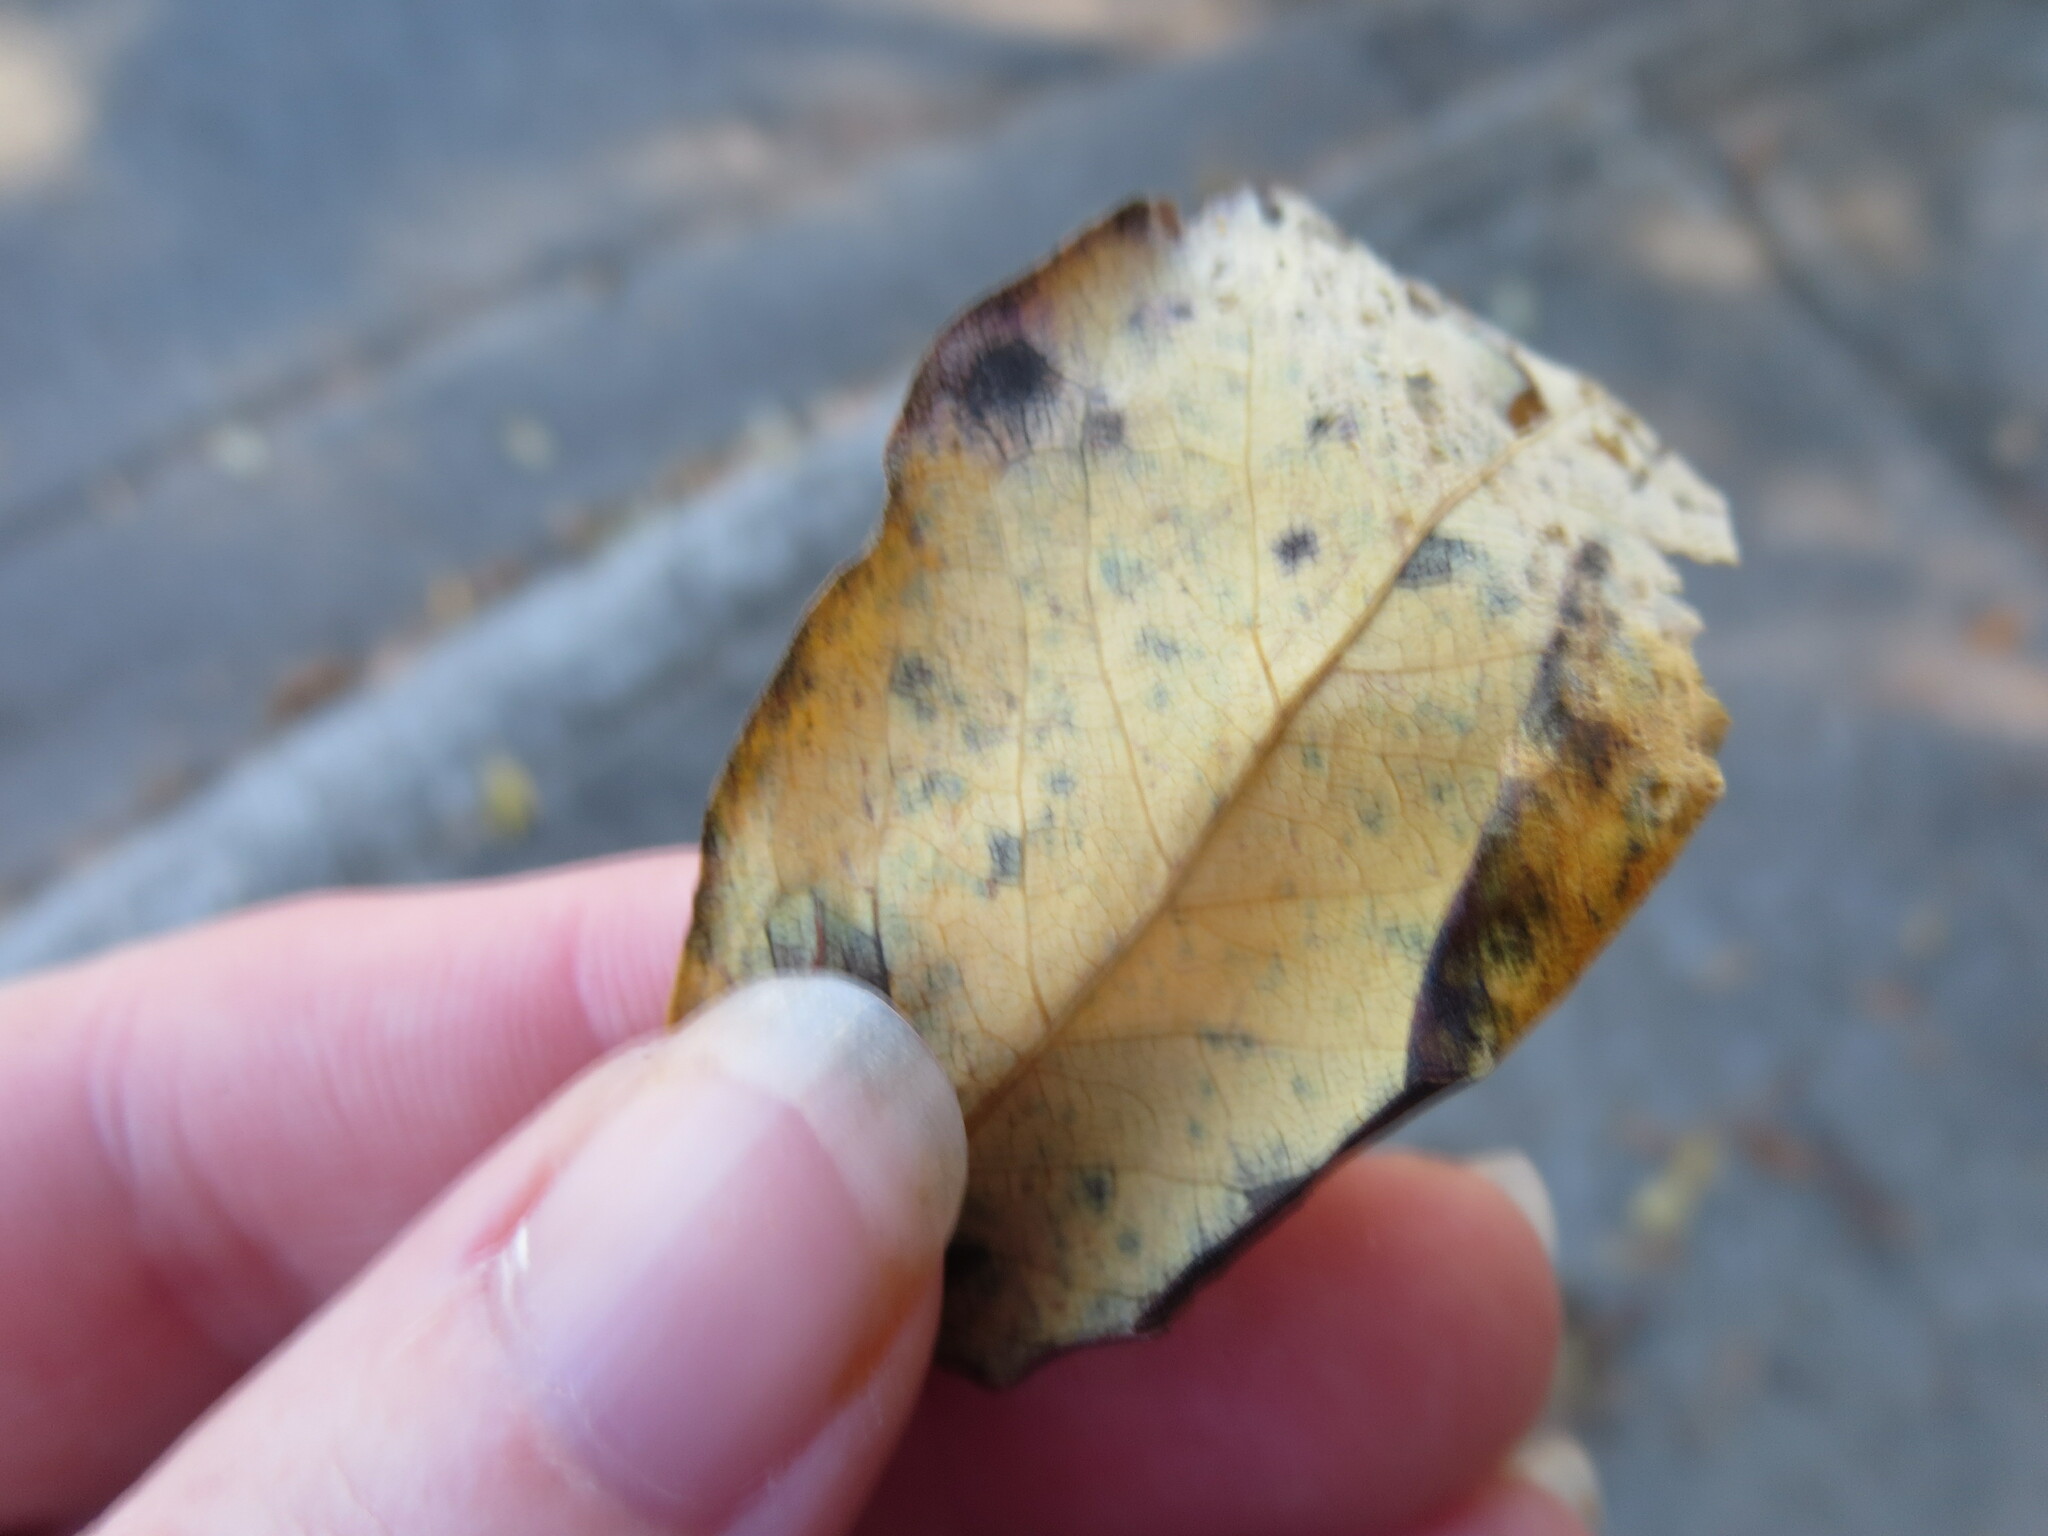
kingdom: Plantae
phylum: Tracheophyta
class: Magnoliopsida
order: Ericales
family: Ebenaceae
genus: Diospyros
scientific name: Diospyros virginiana
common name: Persimmon
